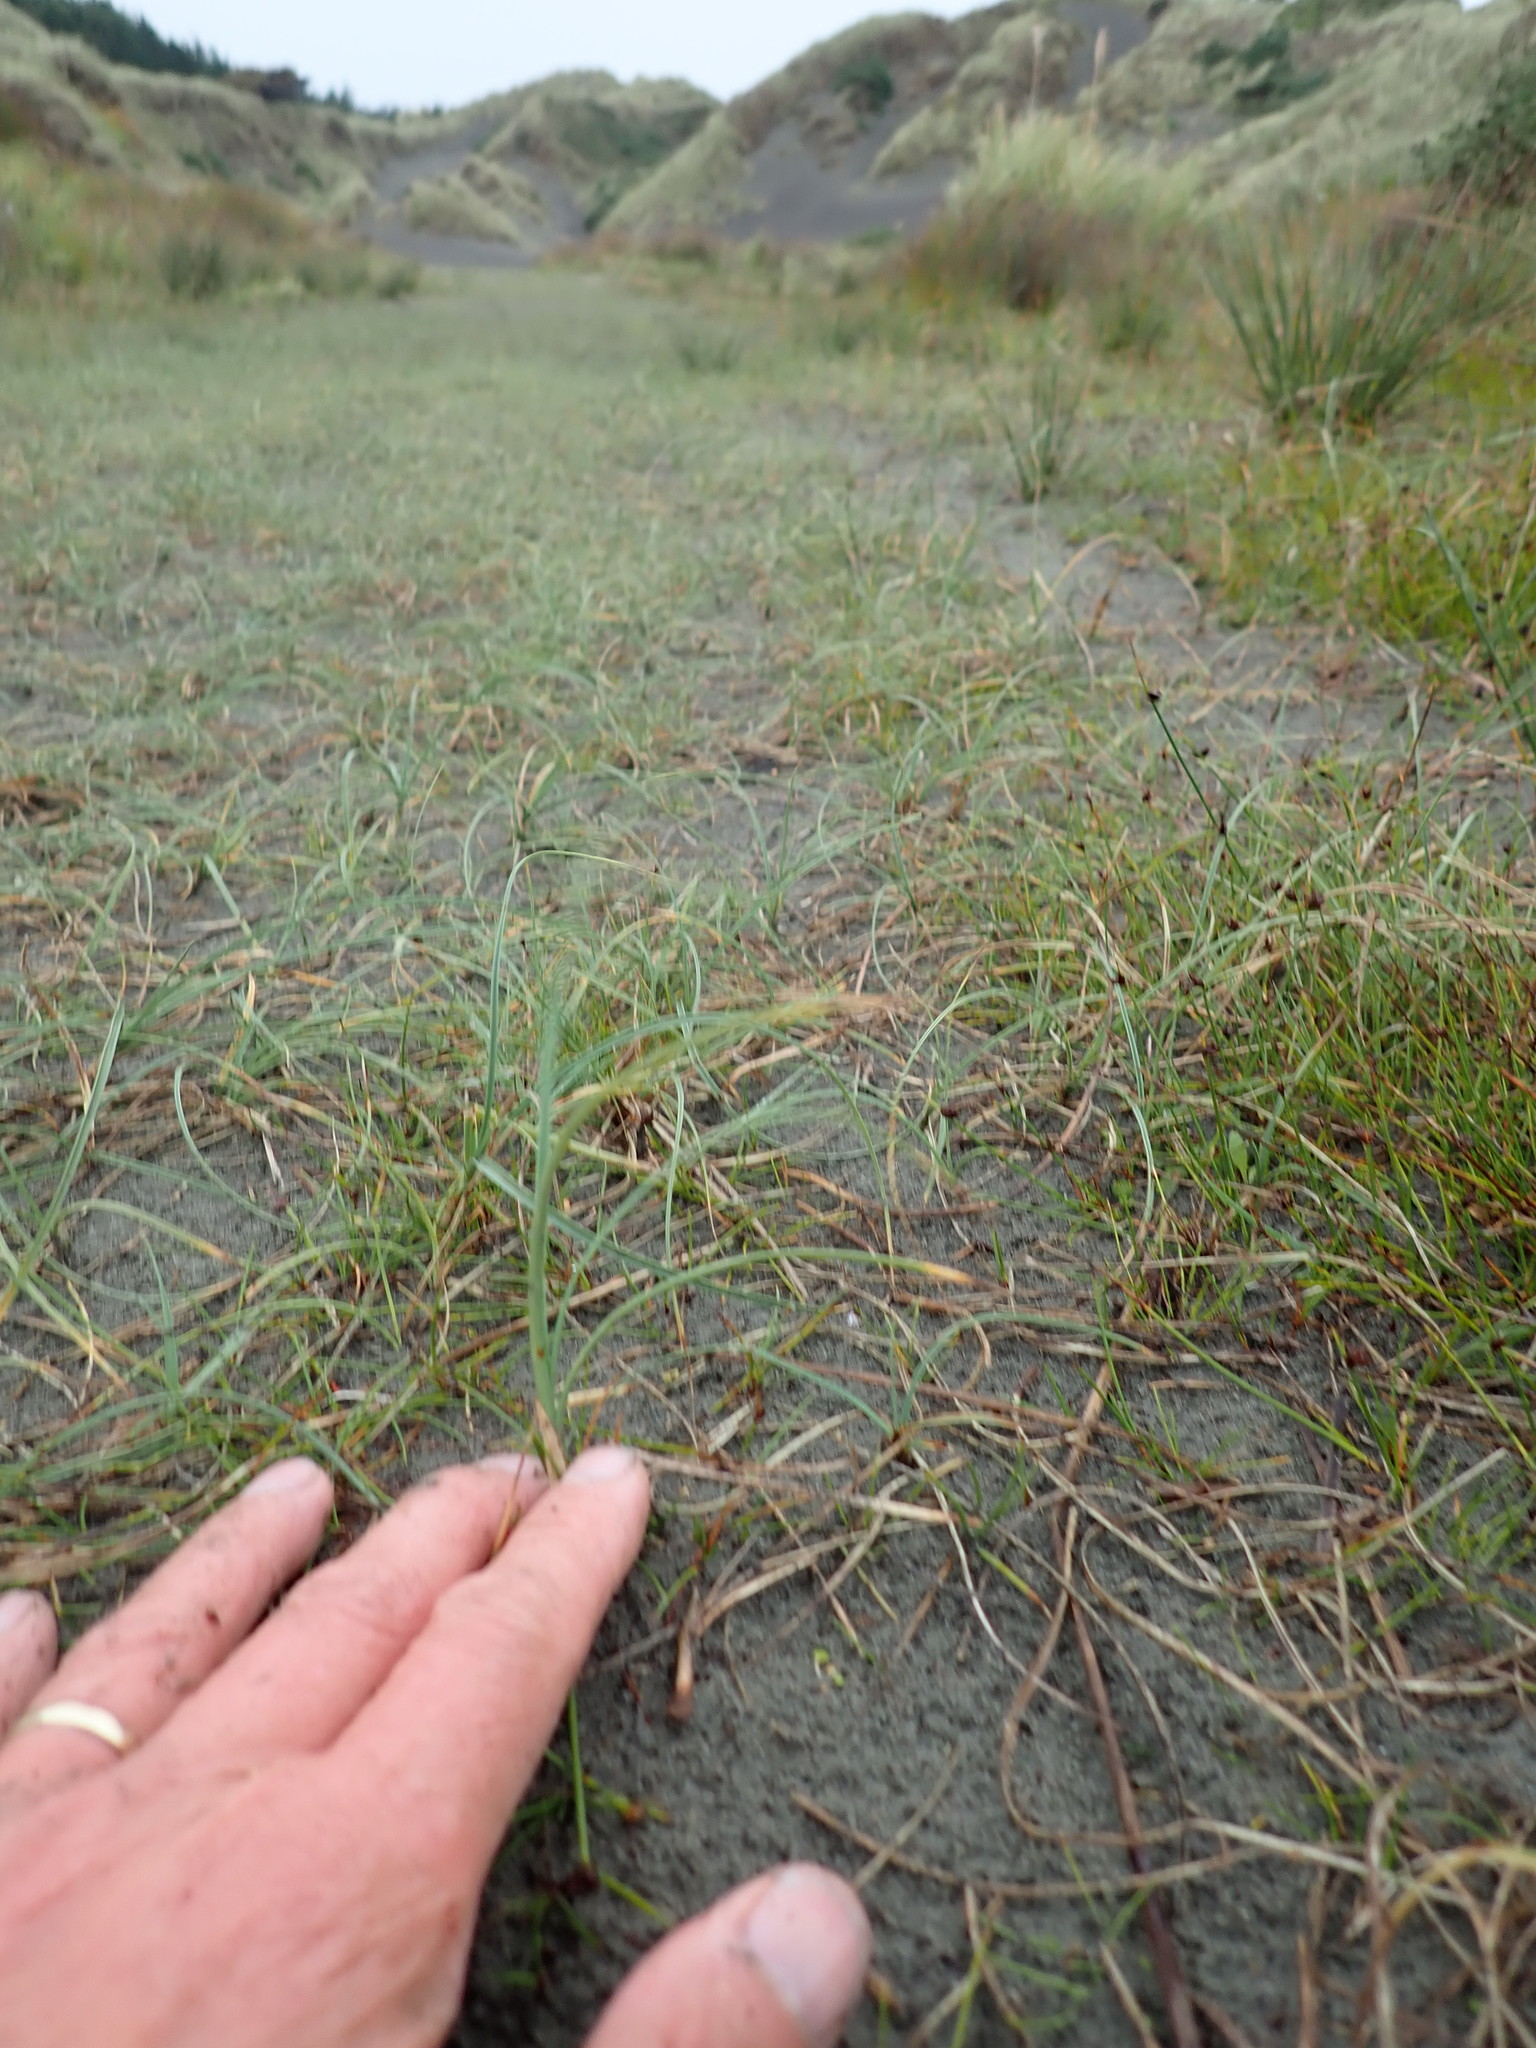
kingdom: Plantae
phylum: Tracheophyta
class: Liliopsida
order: Poales
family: Cyperaceae
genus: Carex
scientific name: Carex pumila
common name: Dwarf sedge
